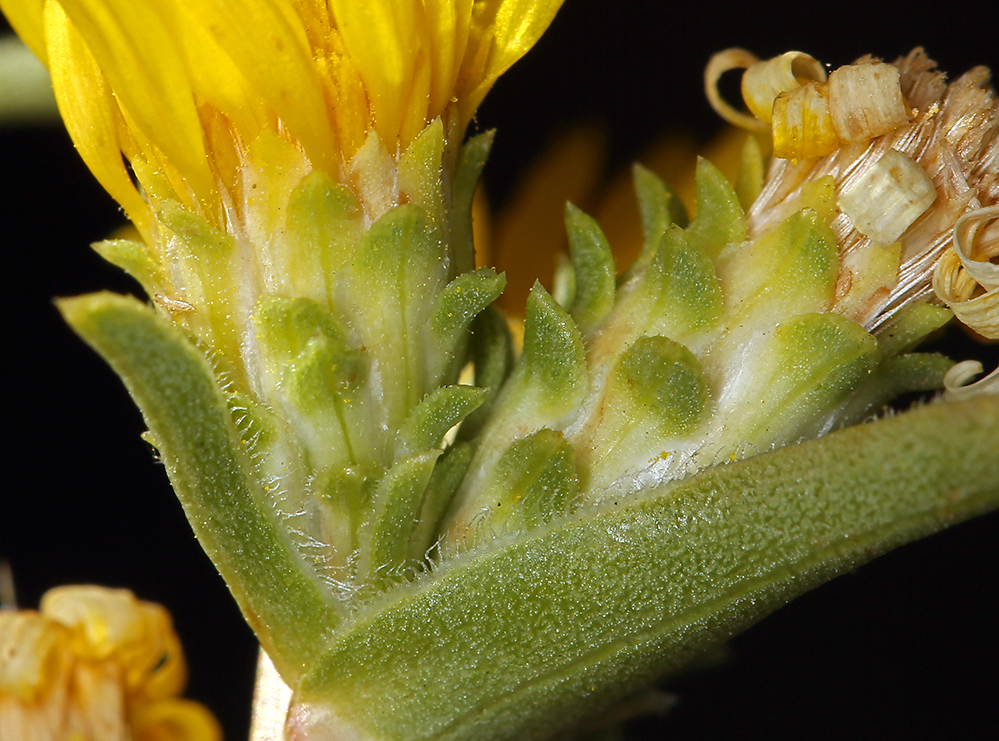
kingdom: Plantae
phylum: Tracheophyta
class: Magnoliopsida
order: Asterales
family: Asteraceae
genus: Pyrrocoma
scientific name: Pyrrocoma racemosa
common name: Clustered goldenweed
